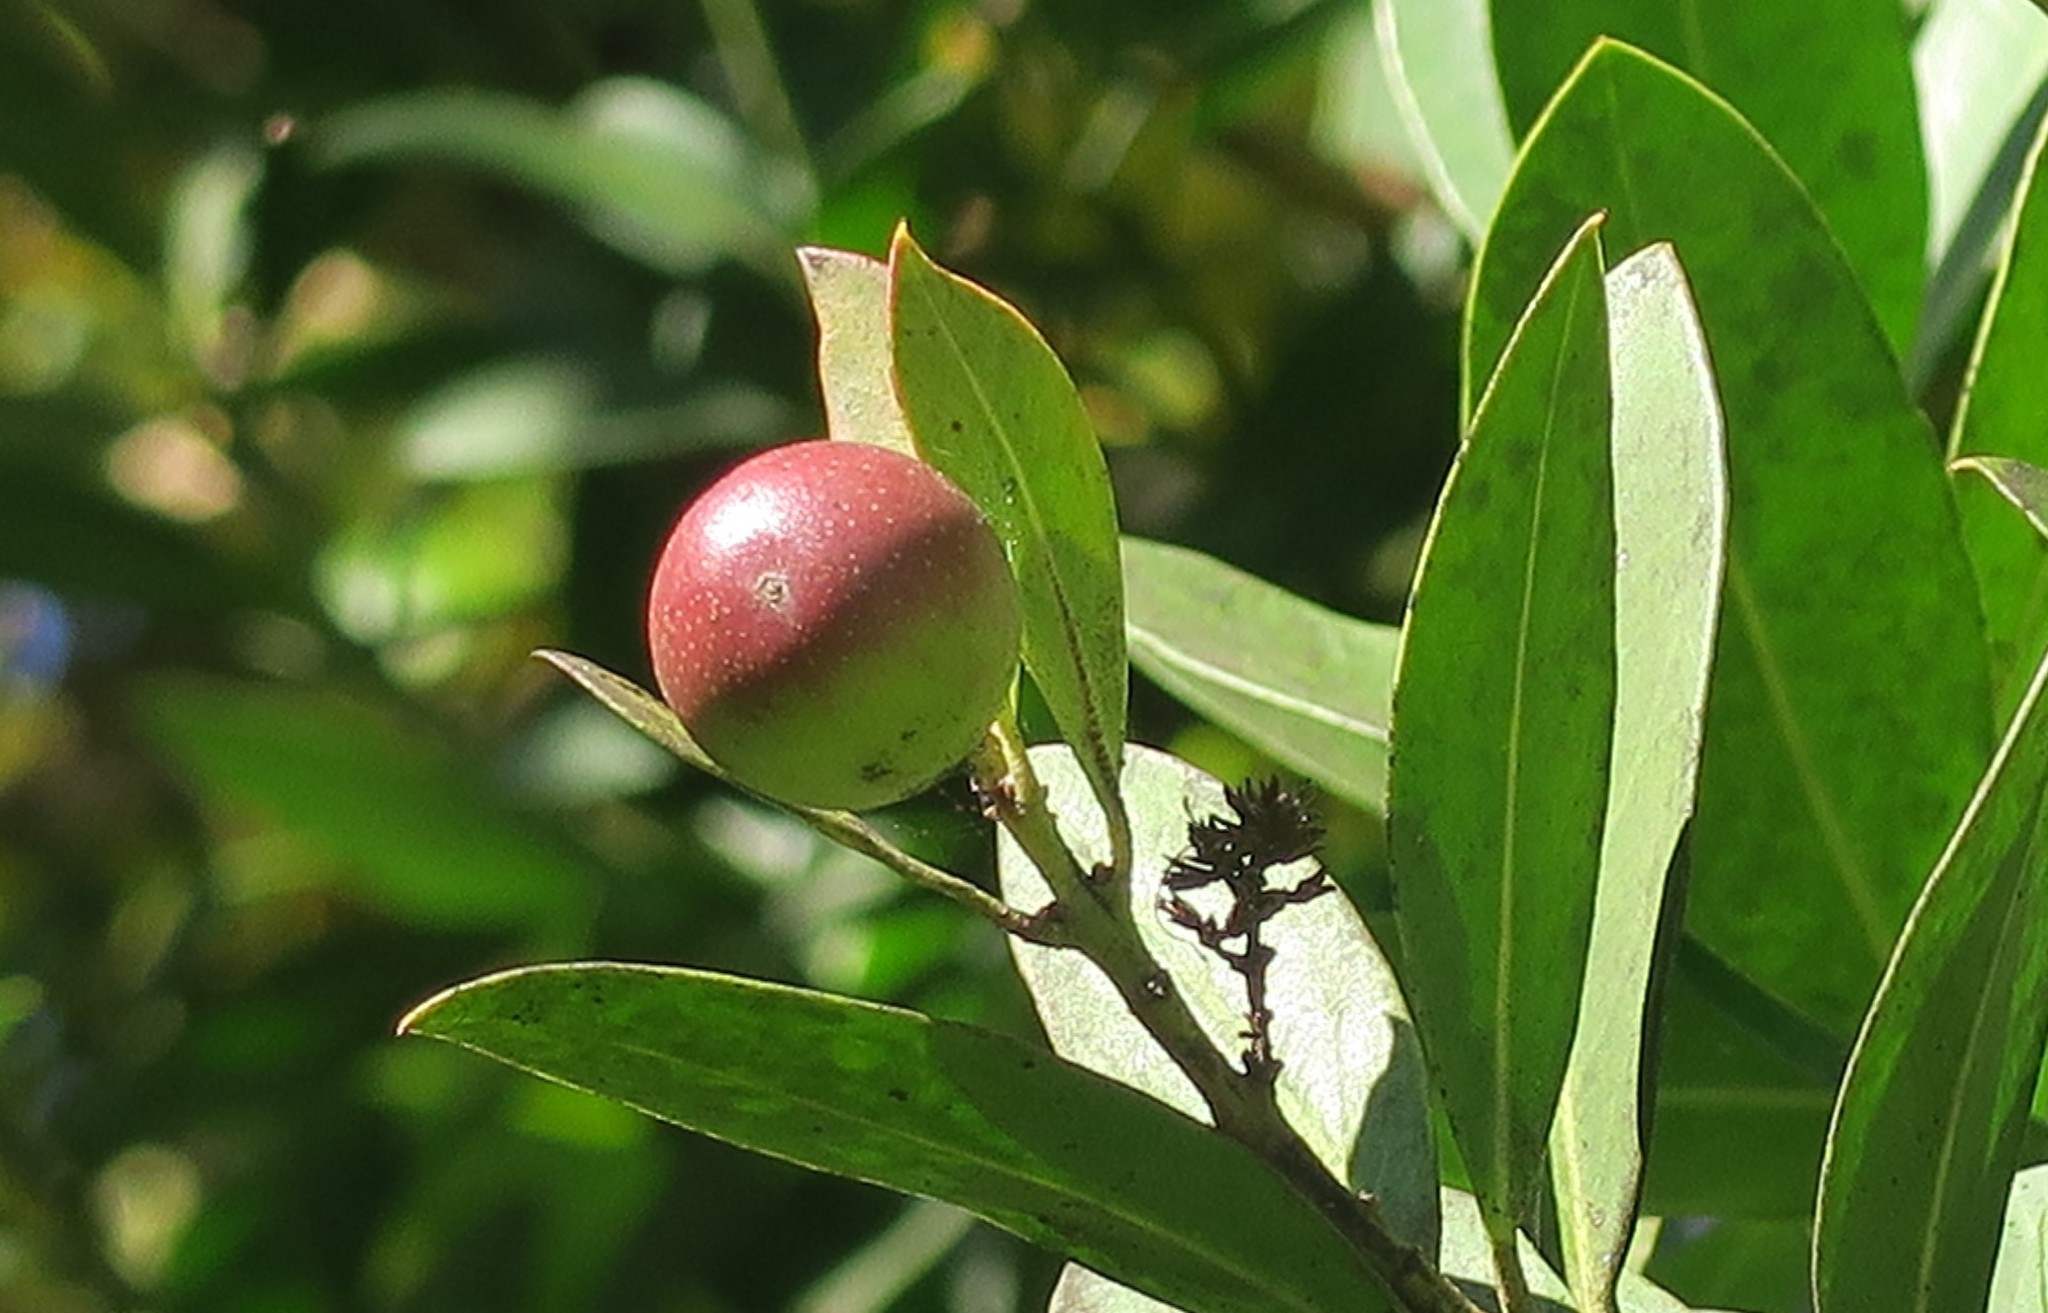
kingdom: Plantae
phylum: Tracheophyta
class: Magnoliopsida
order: Gentianales
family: Apocynaceae
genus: Acokanthera
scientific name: Acokanthera oppositifolia
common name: Bushman's-poison
